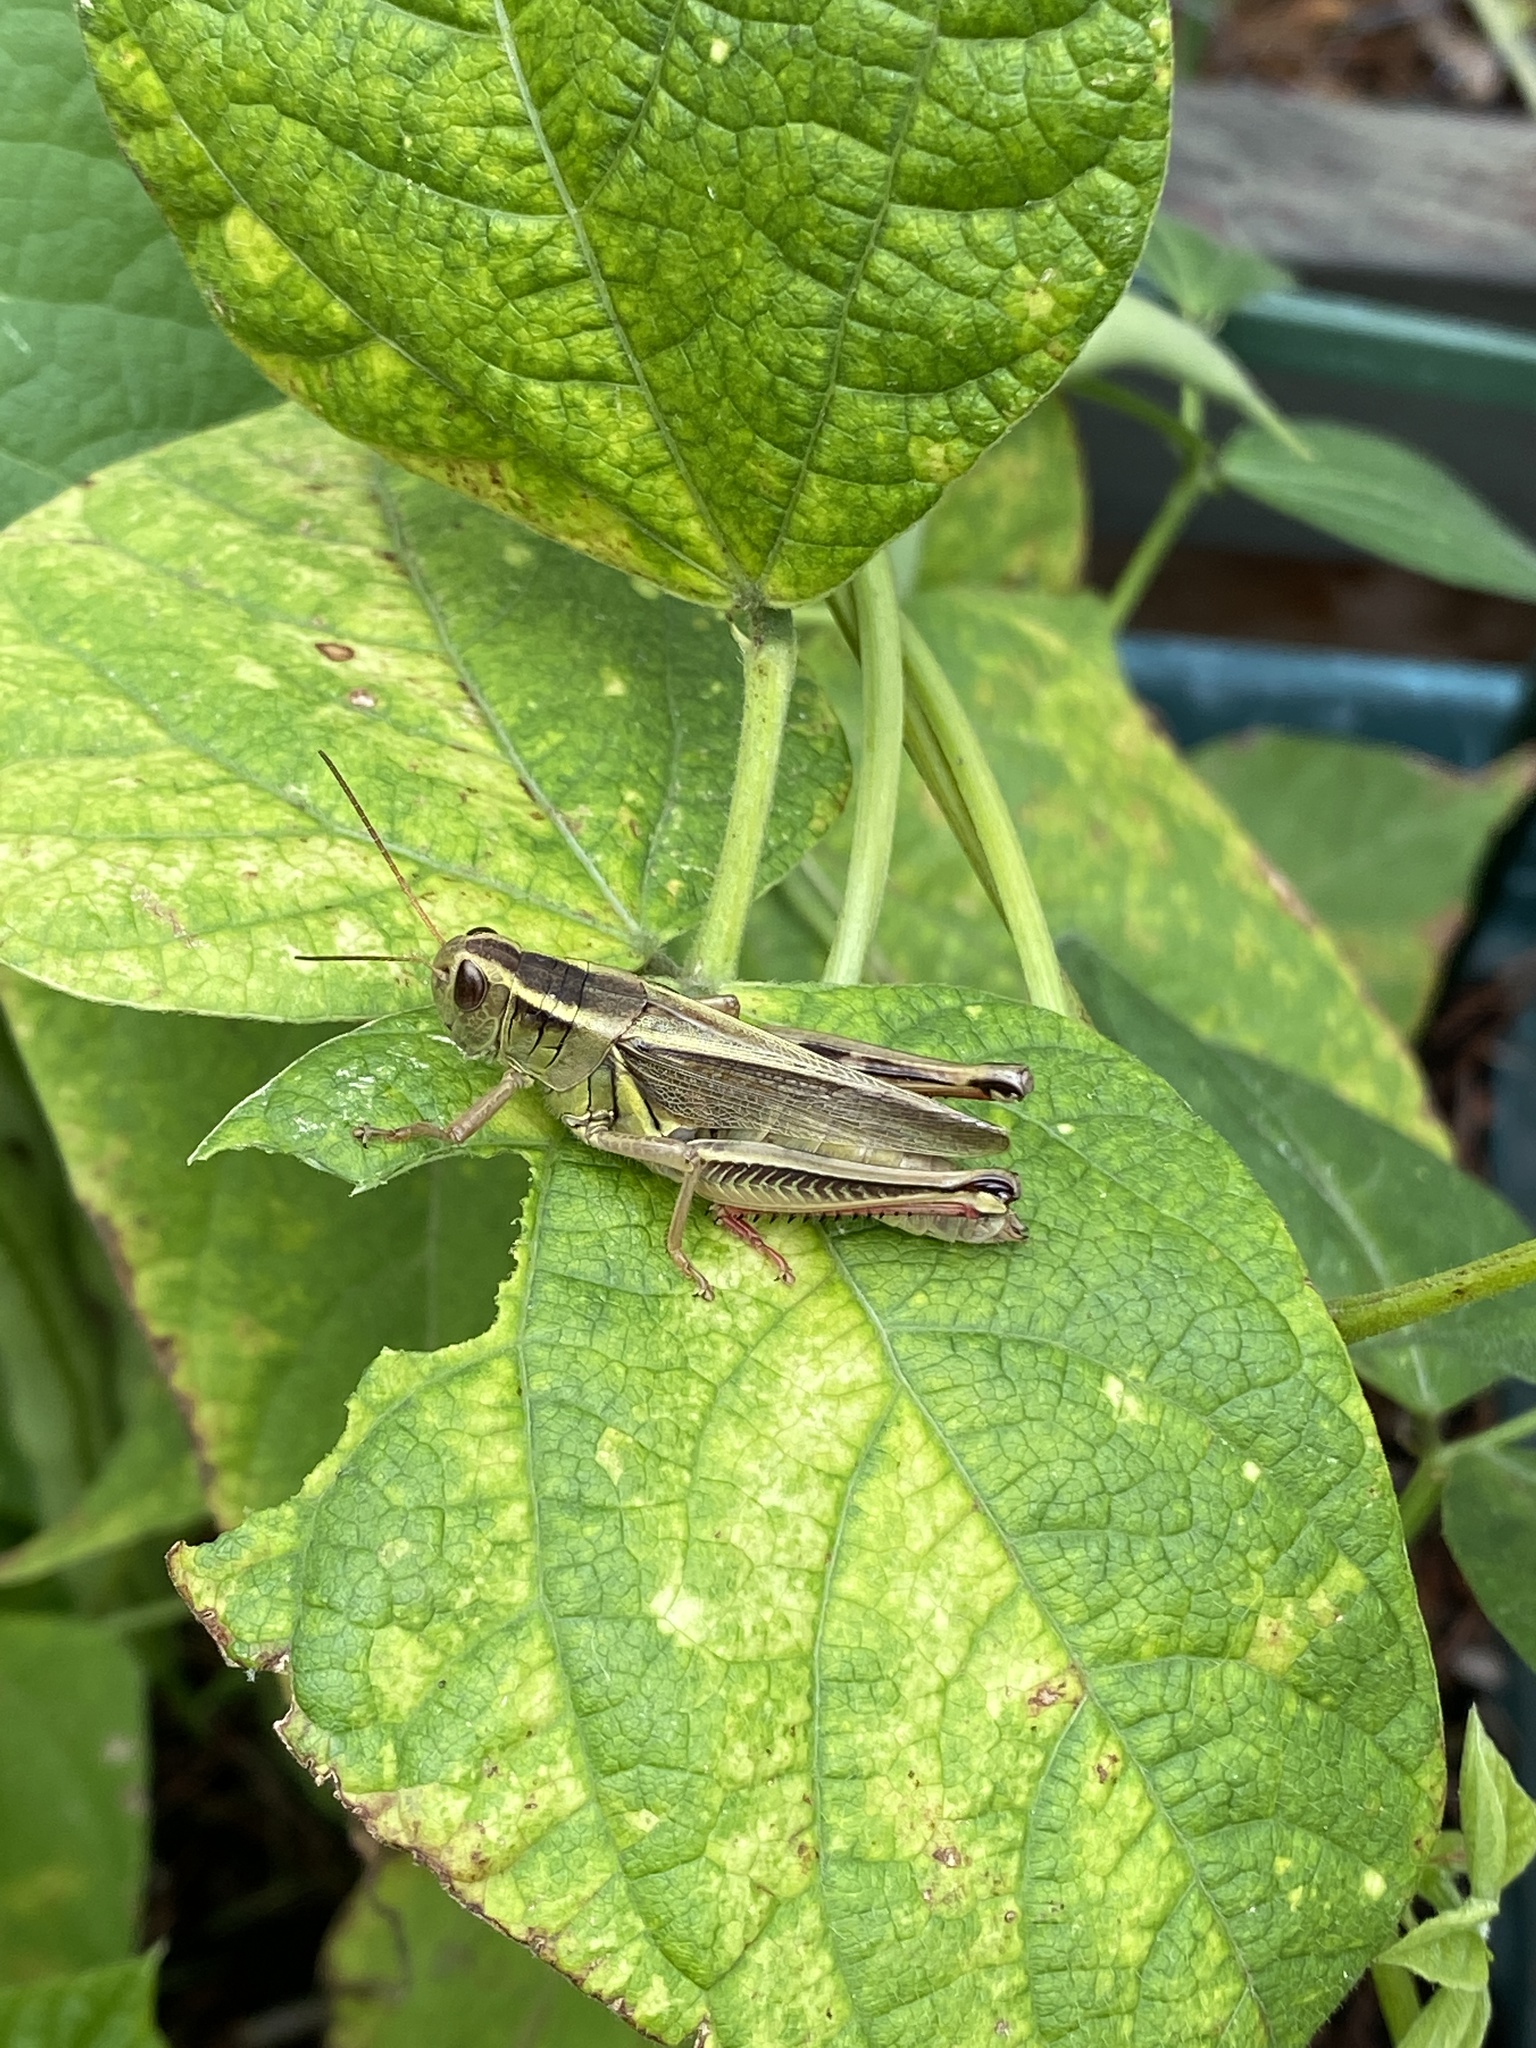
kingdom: Animalia
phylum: Arthropoda
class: Insecta
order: Orthoptera
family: Acrididae
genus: Melanoplus
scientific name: Melanoplus bivittatus
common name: Two-striped grasshopper
